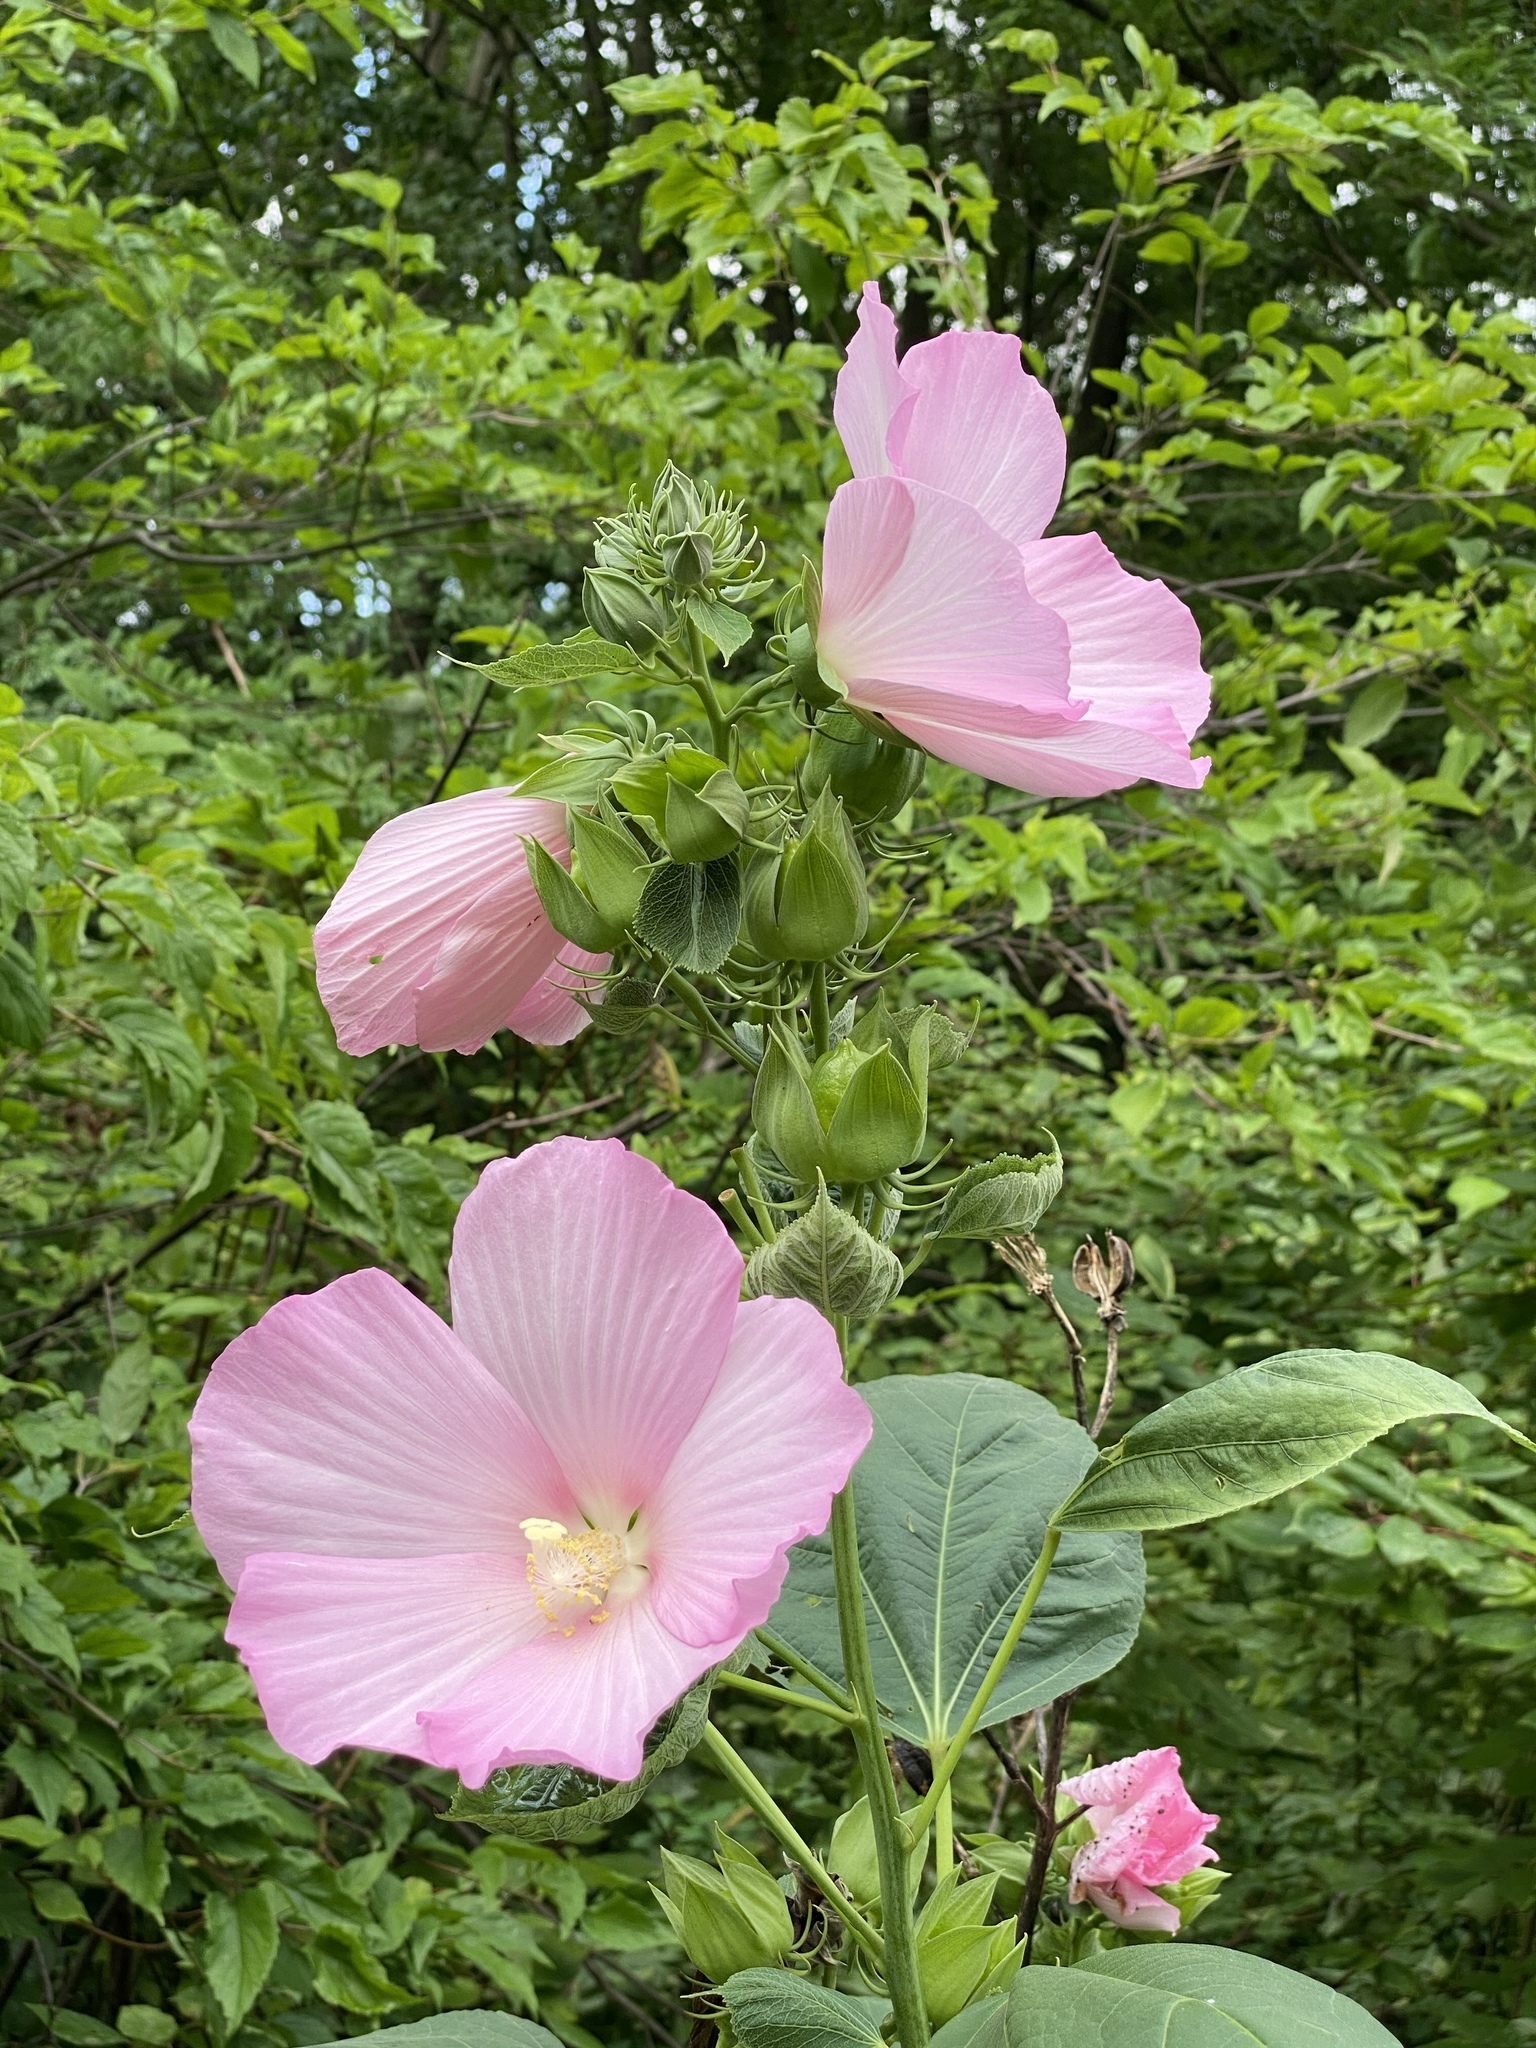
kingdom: Plantae
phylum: Tracheophyta
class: Magnoliopsida
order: Malvales
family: Malvaceae
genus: Hibiscus
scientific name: Hibiscus moscheutos
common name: Common rose-mallow
